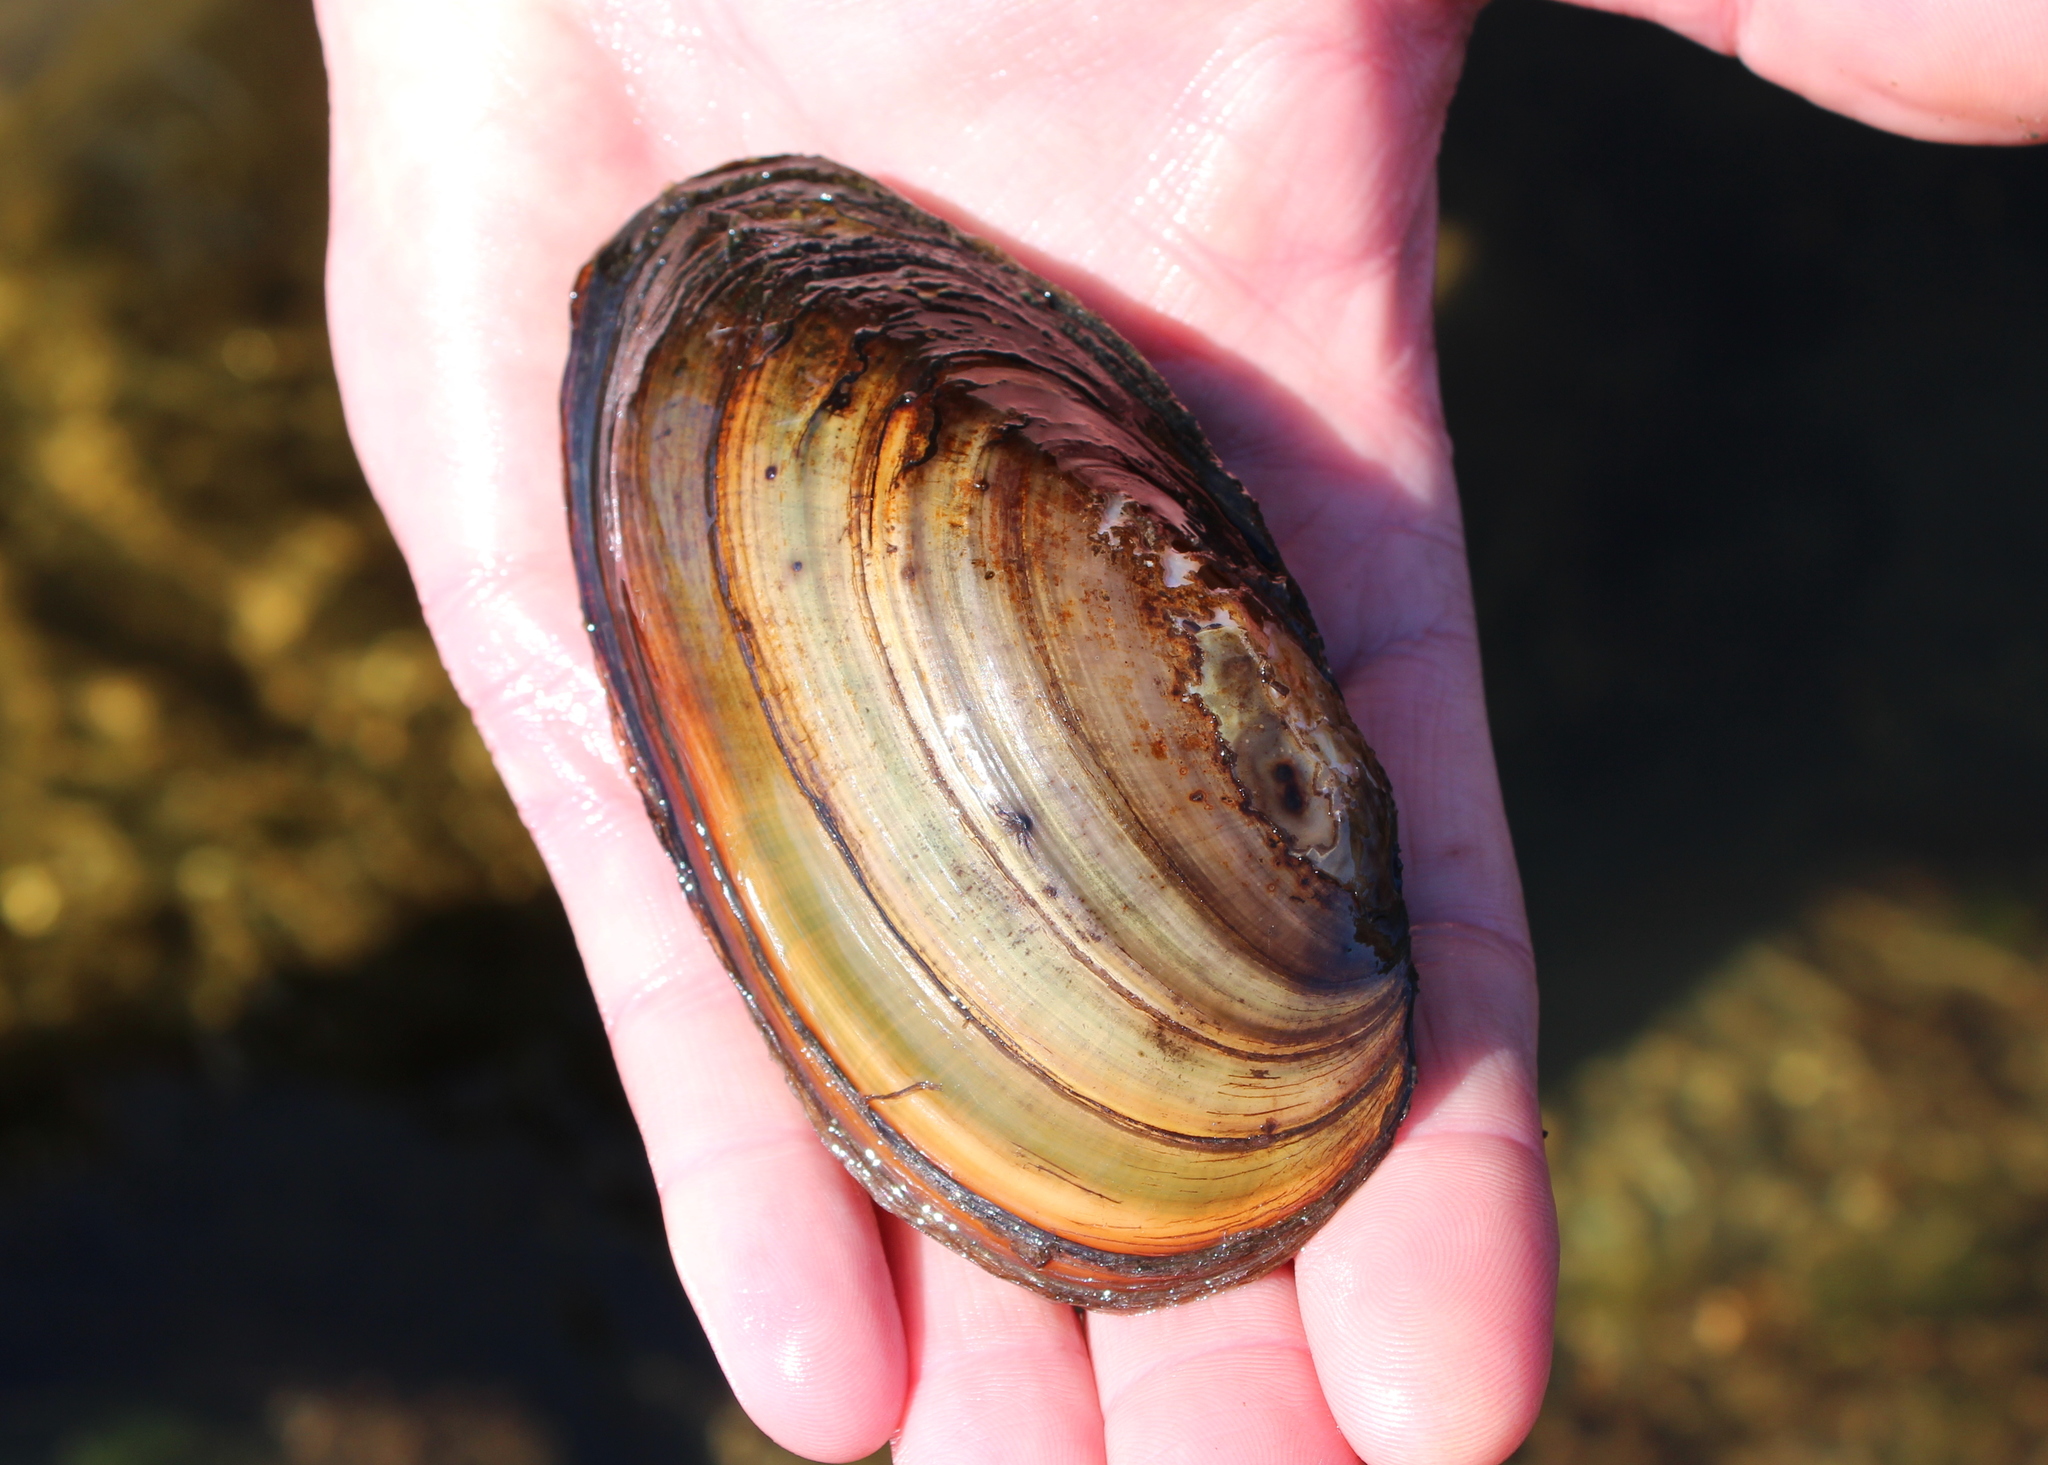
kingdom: Animalia
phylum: Mollusca
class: Bivalvia
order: Unionida
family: Unionidae
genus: Pyganodon
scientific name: Pyganodon cataracta
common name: Eastern floater
